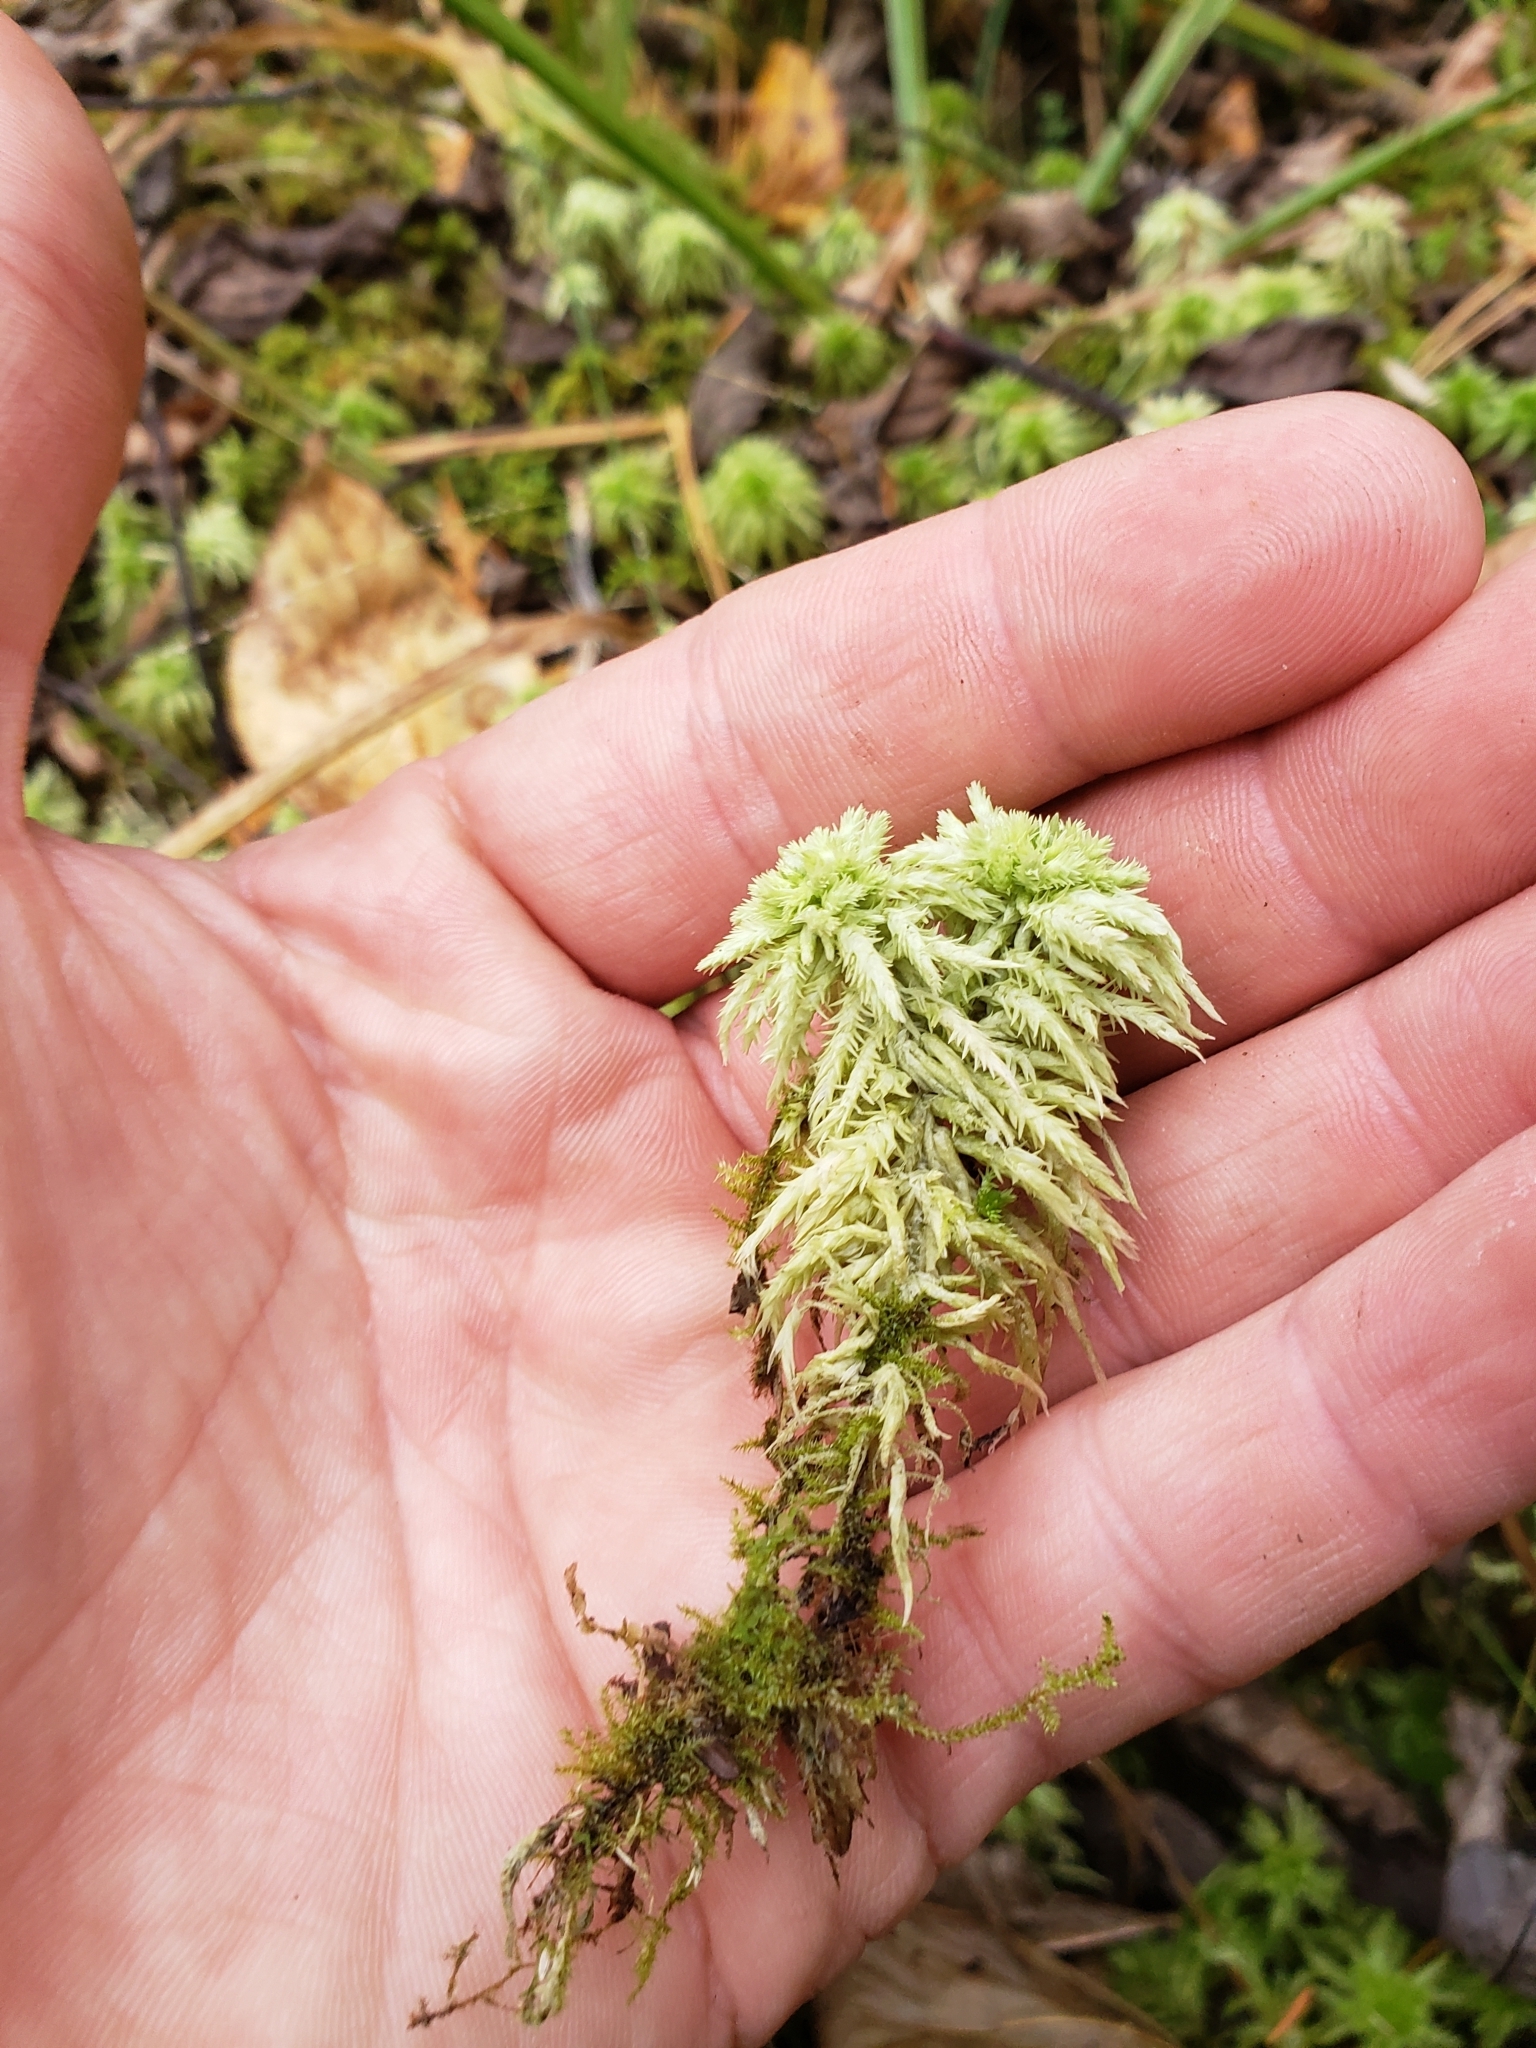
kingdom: Plantae
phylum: Bryophyta
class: Sphagnopsida
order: Sphagnales
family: Sphagnaceae
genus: Sphagnum
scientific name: Sphagnum squarrosum
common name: Shaggy peat moss
